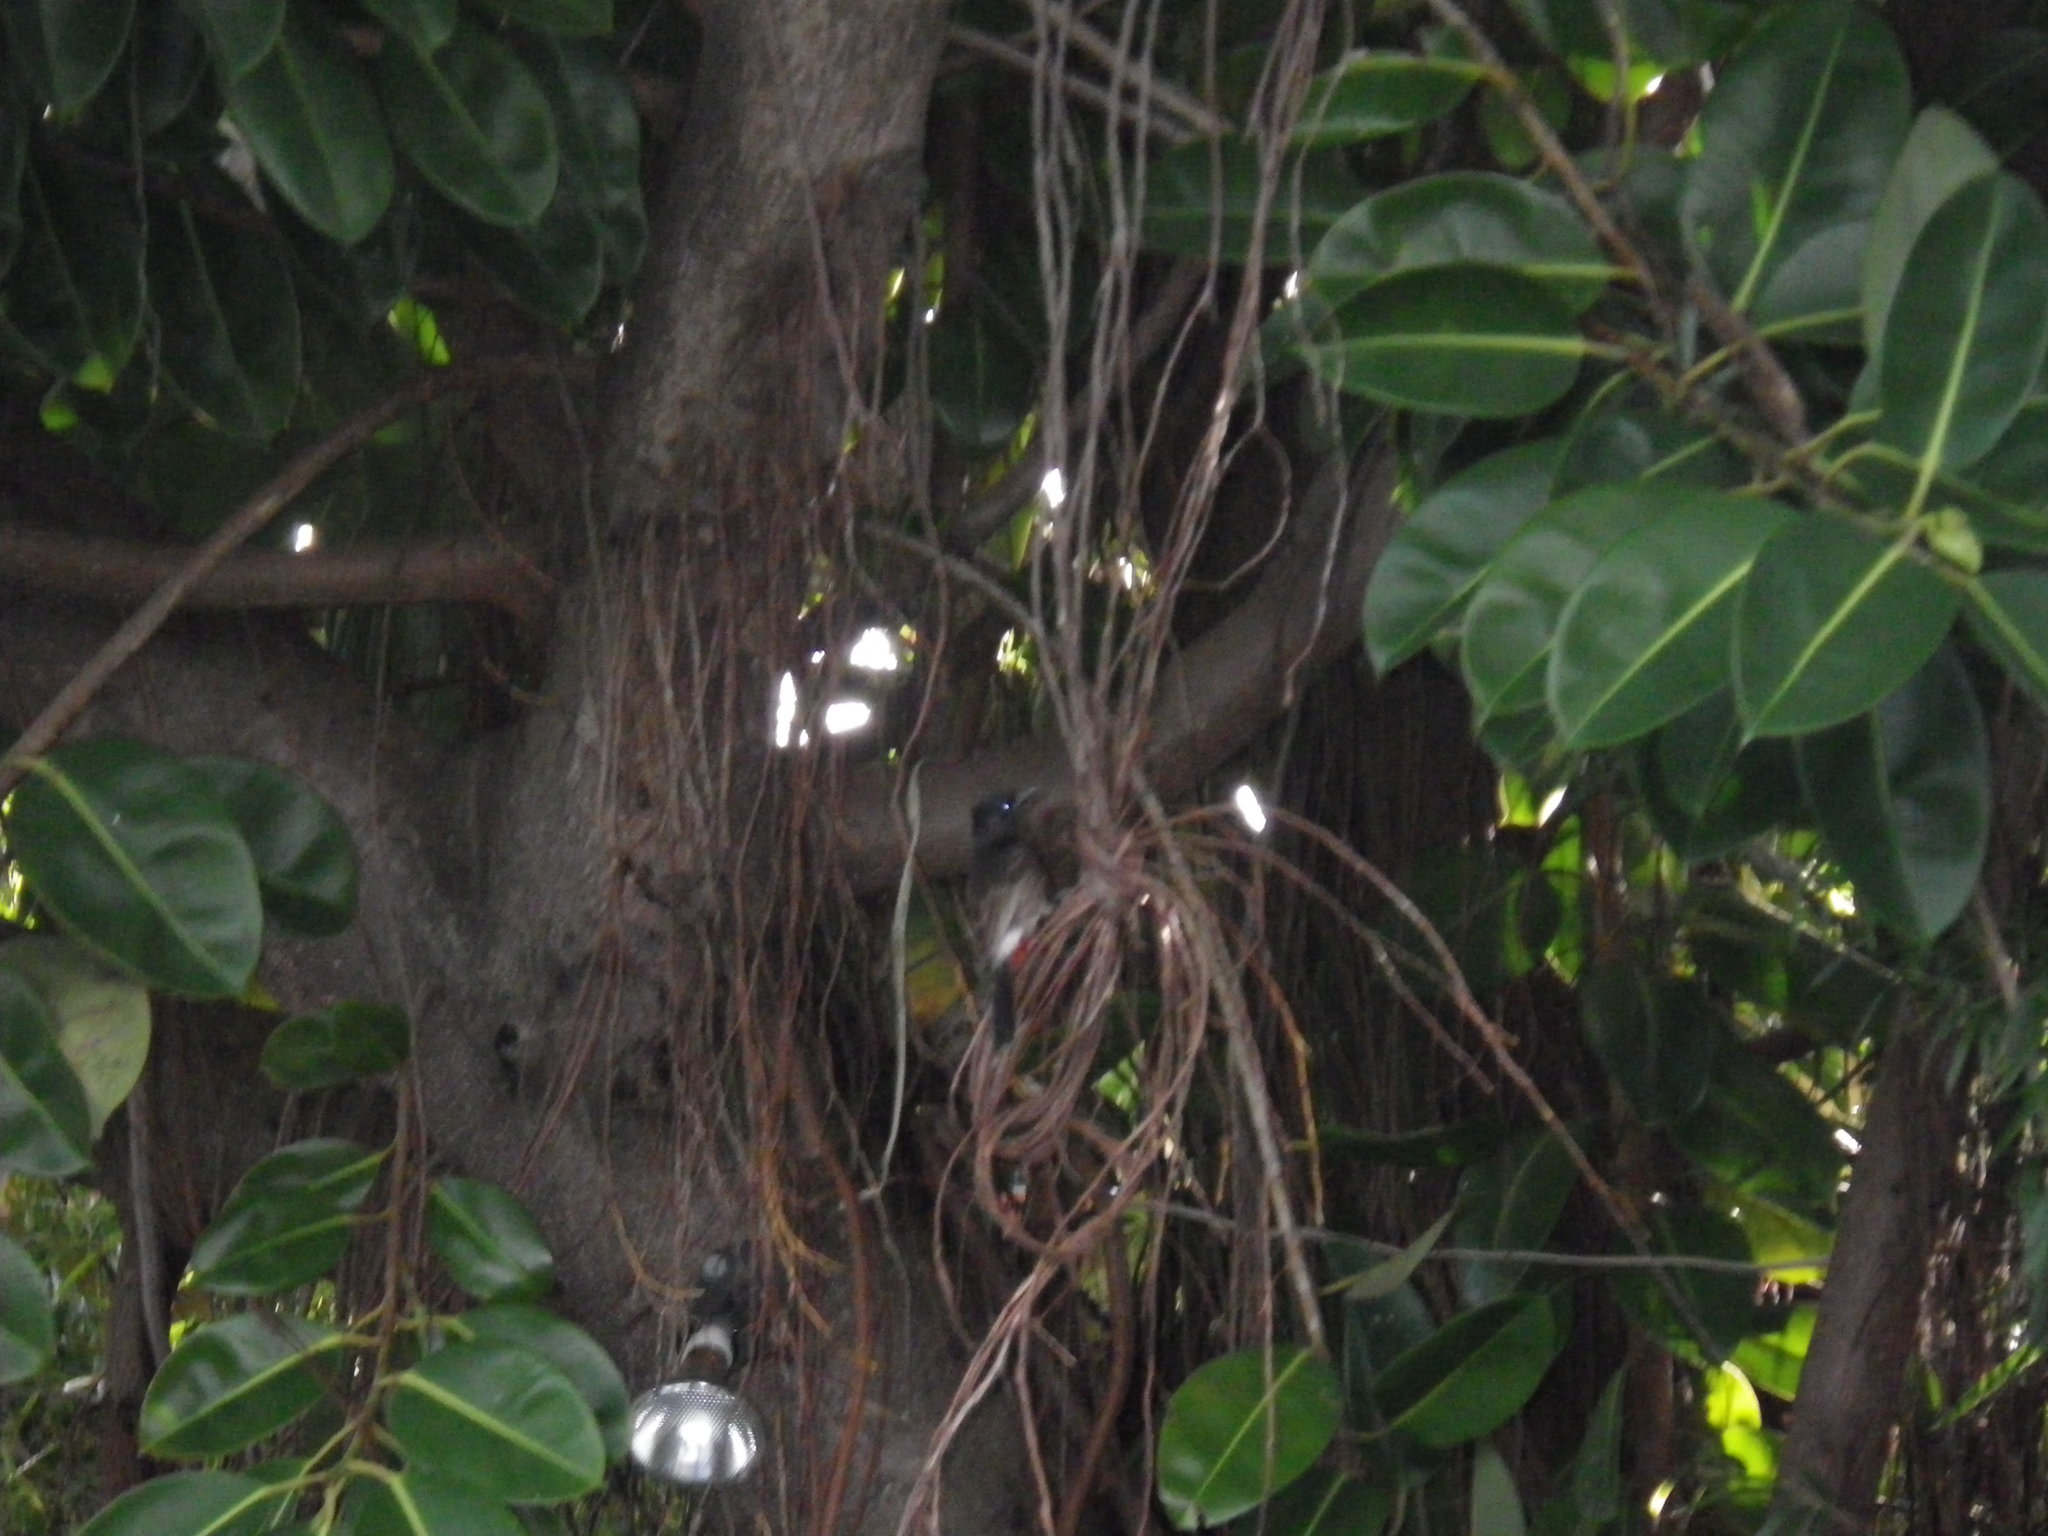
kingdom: Animalia
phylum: Chordata
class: Aves
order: Passeriformes
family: Pycnonotidae
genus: Pycnonotus
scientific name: Pycnonotus cafer
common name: Red-vented bulbul
